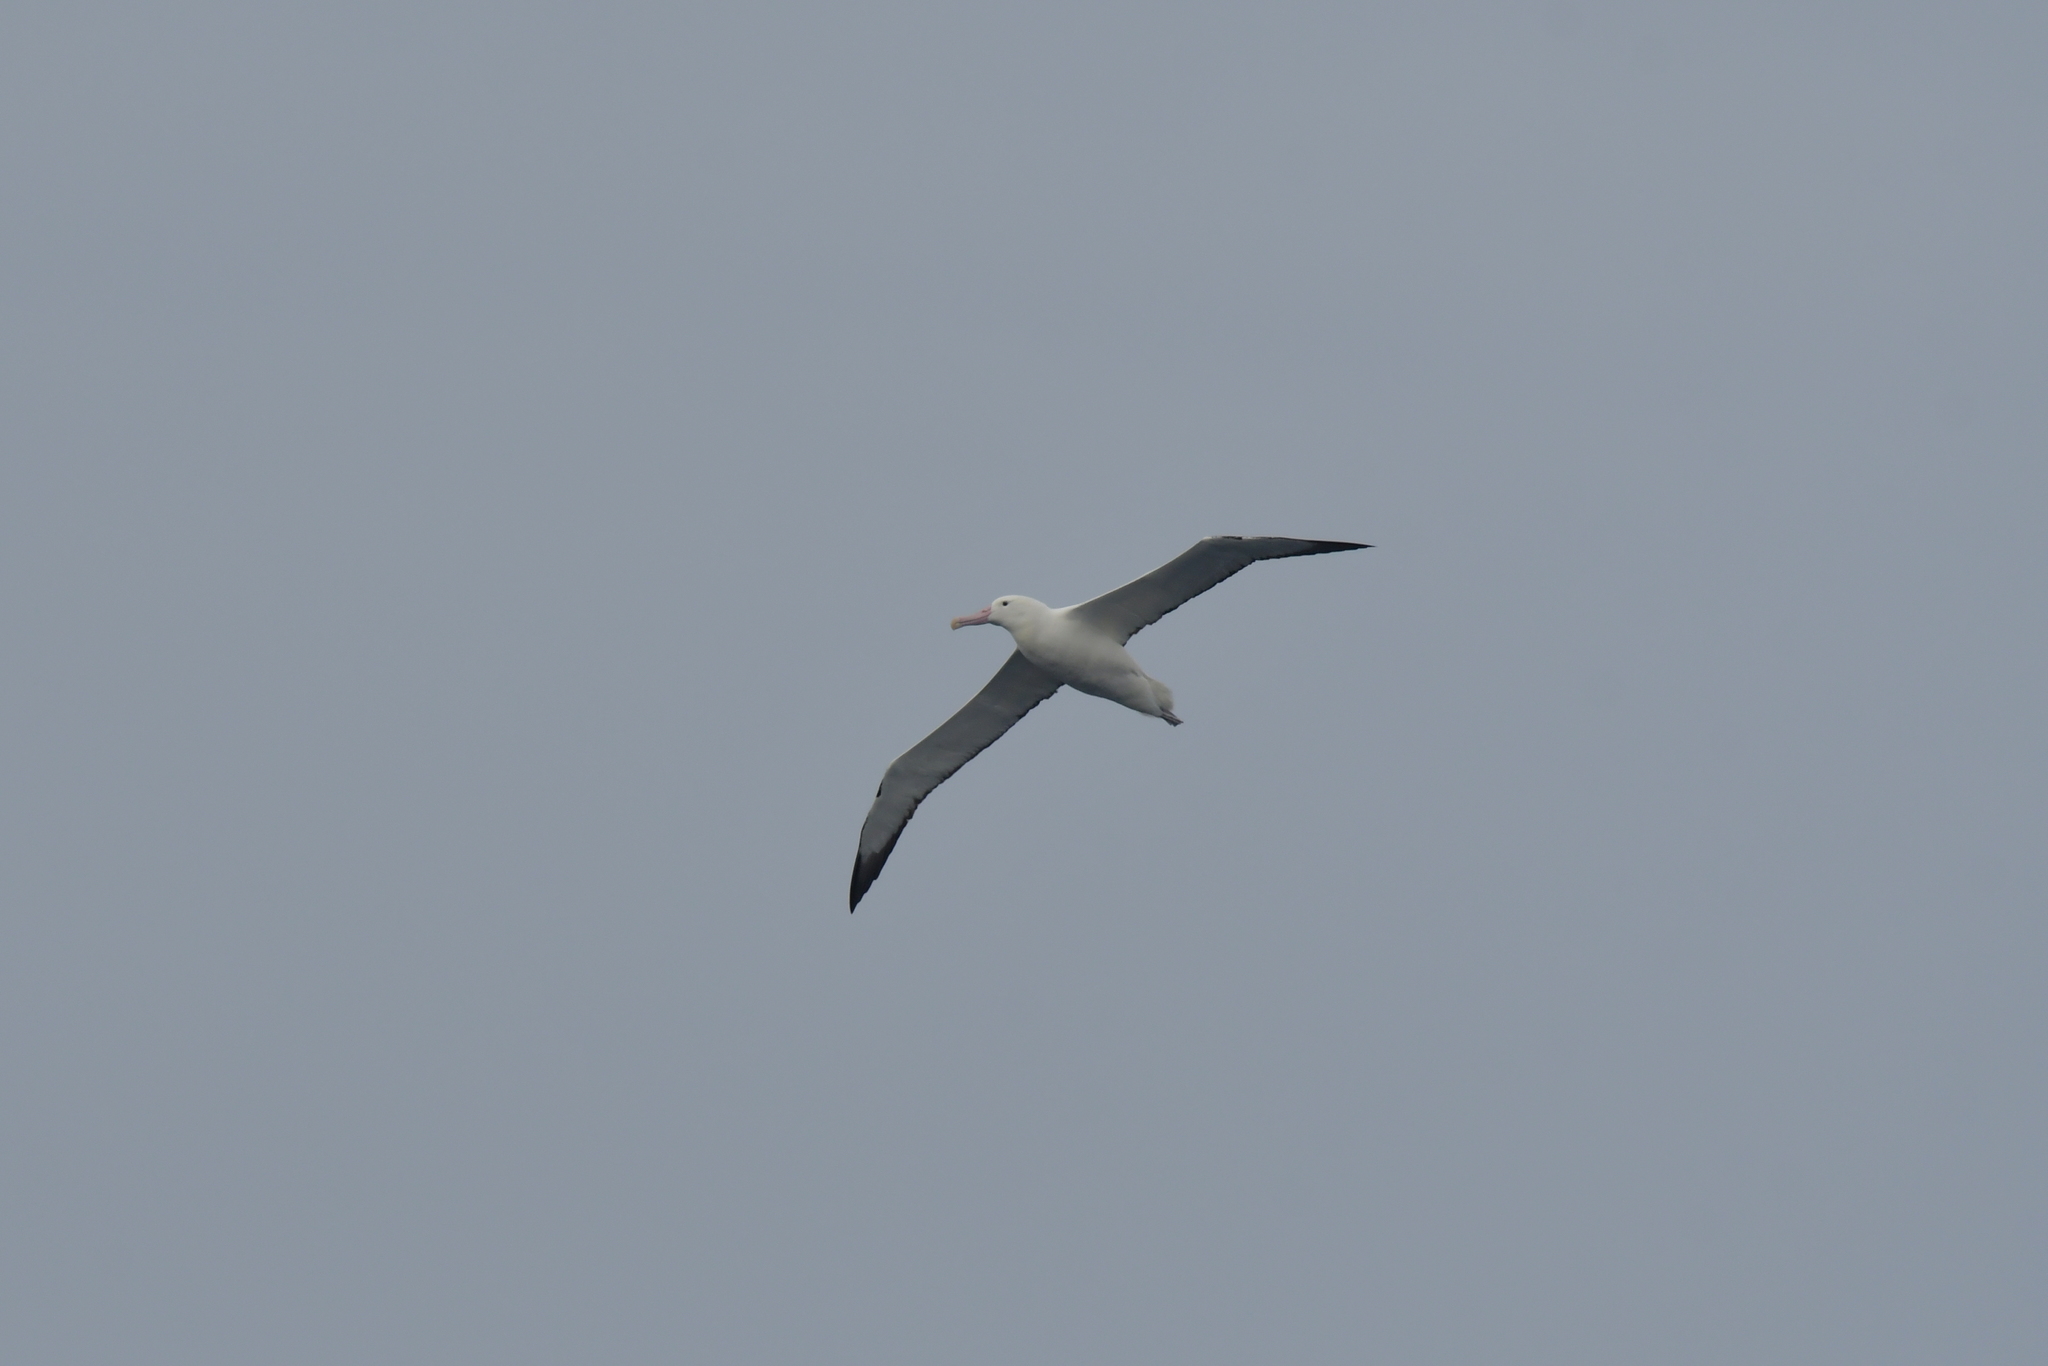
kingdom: Animalia
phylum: Chordata
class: Aves
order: Procellariiformes
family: Diomedeidae
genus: Diomedea
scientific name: Diomedea epomophora
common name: Southern royal albatross
